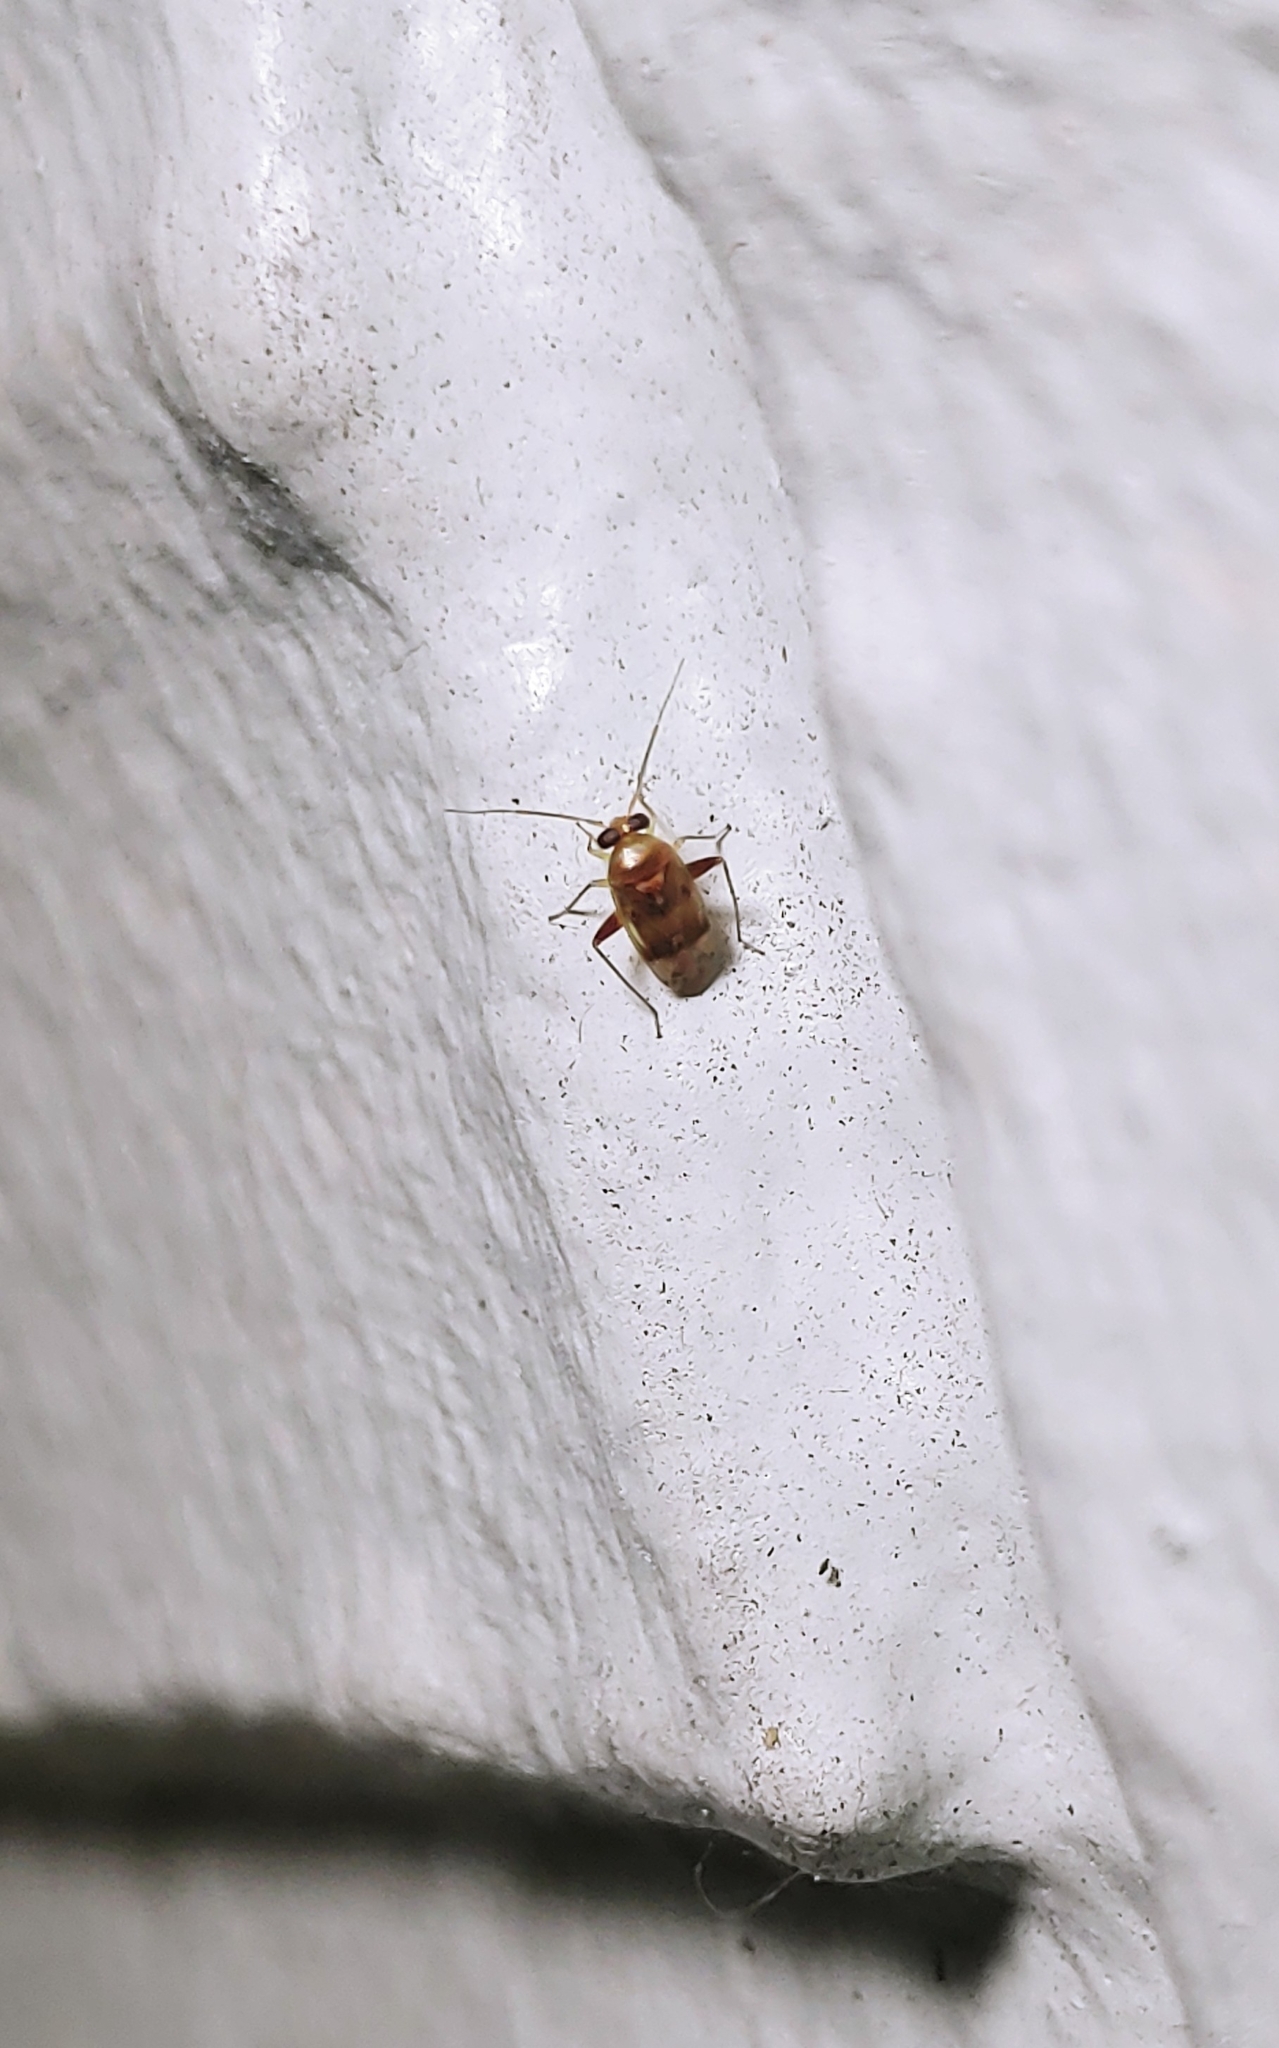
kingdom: Animalia
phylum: Arthropoda
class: Insecta
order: Hemiptera
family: Miridae
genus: Dagbertus
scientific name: Dagbertus
